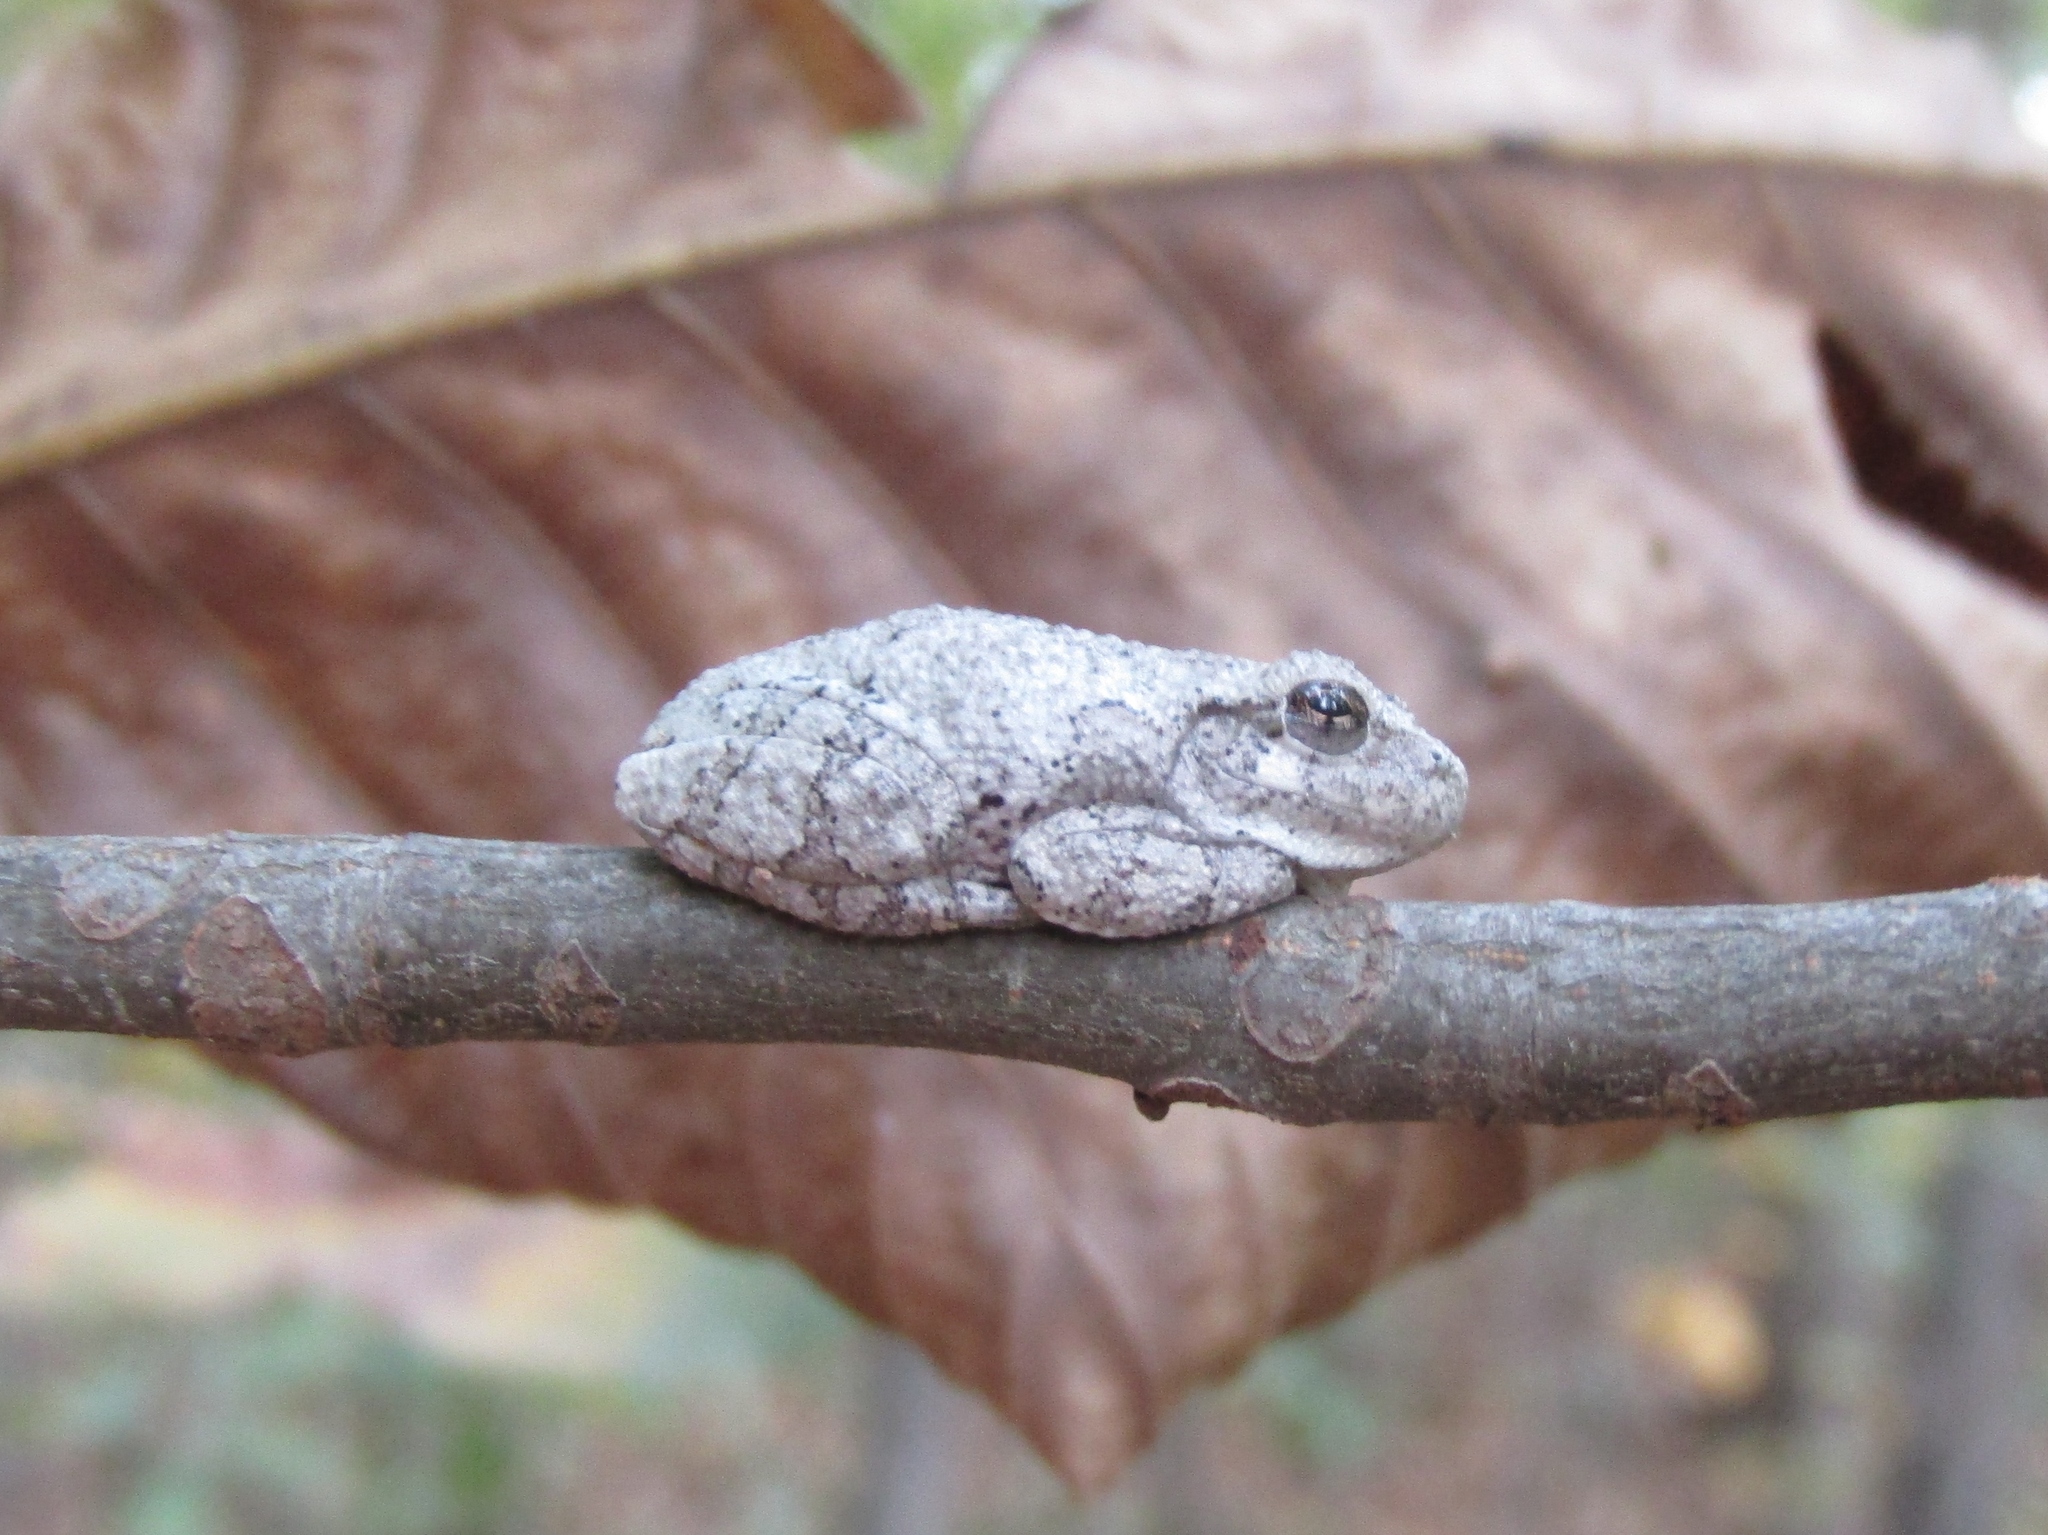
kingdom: Animalia
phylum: Chordata
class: Amphibia
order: Anura
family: Hylidae
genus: Dryophytes
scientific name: Dryophytes chrysoscelis
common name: Cope's gray treefrog
